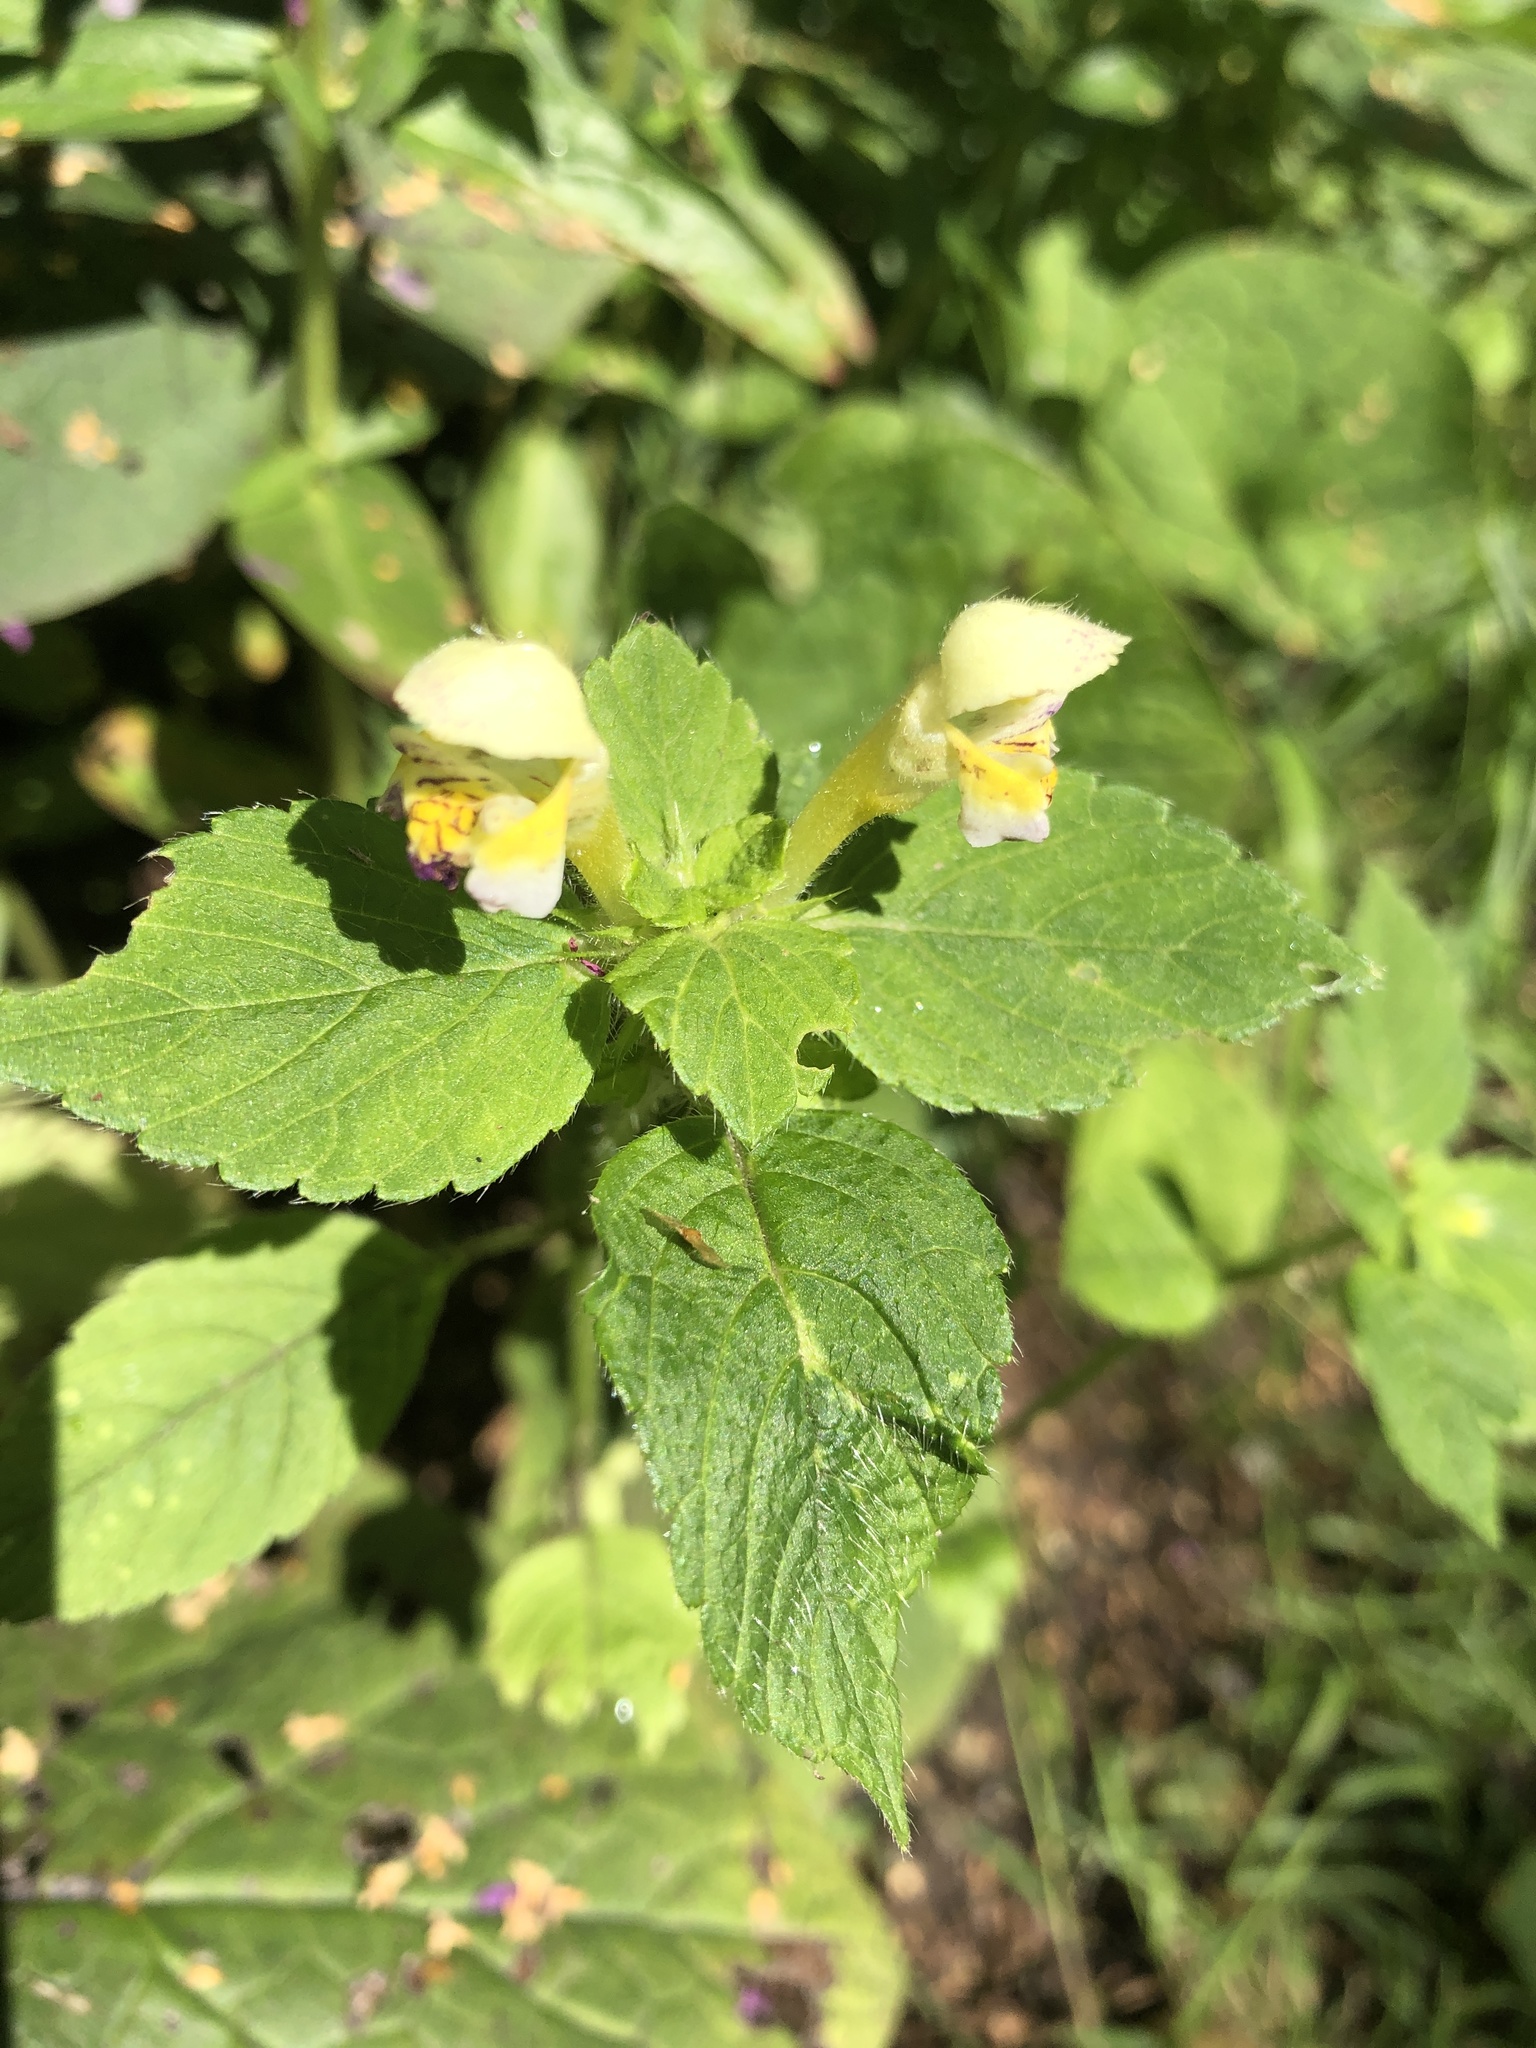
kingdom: Plantae
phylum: Tracheophyta
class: Magnoliopsida
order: Lamiales
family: Lamiaceae
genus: Galeopsis
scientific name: Galeopsis speciosa
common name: Large-flowered hemp-nettle
